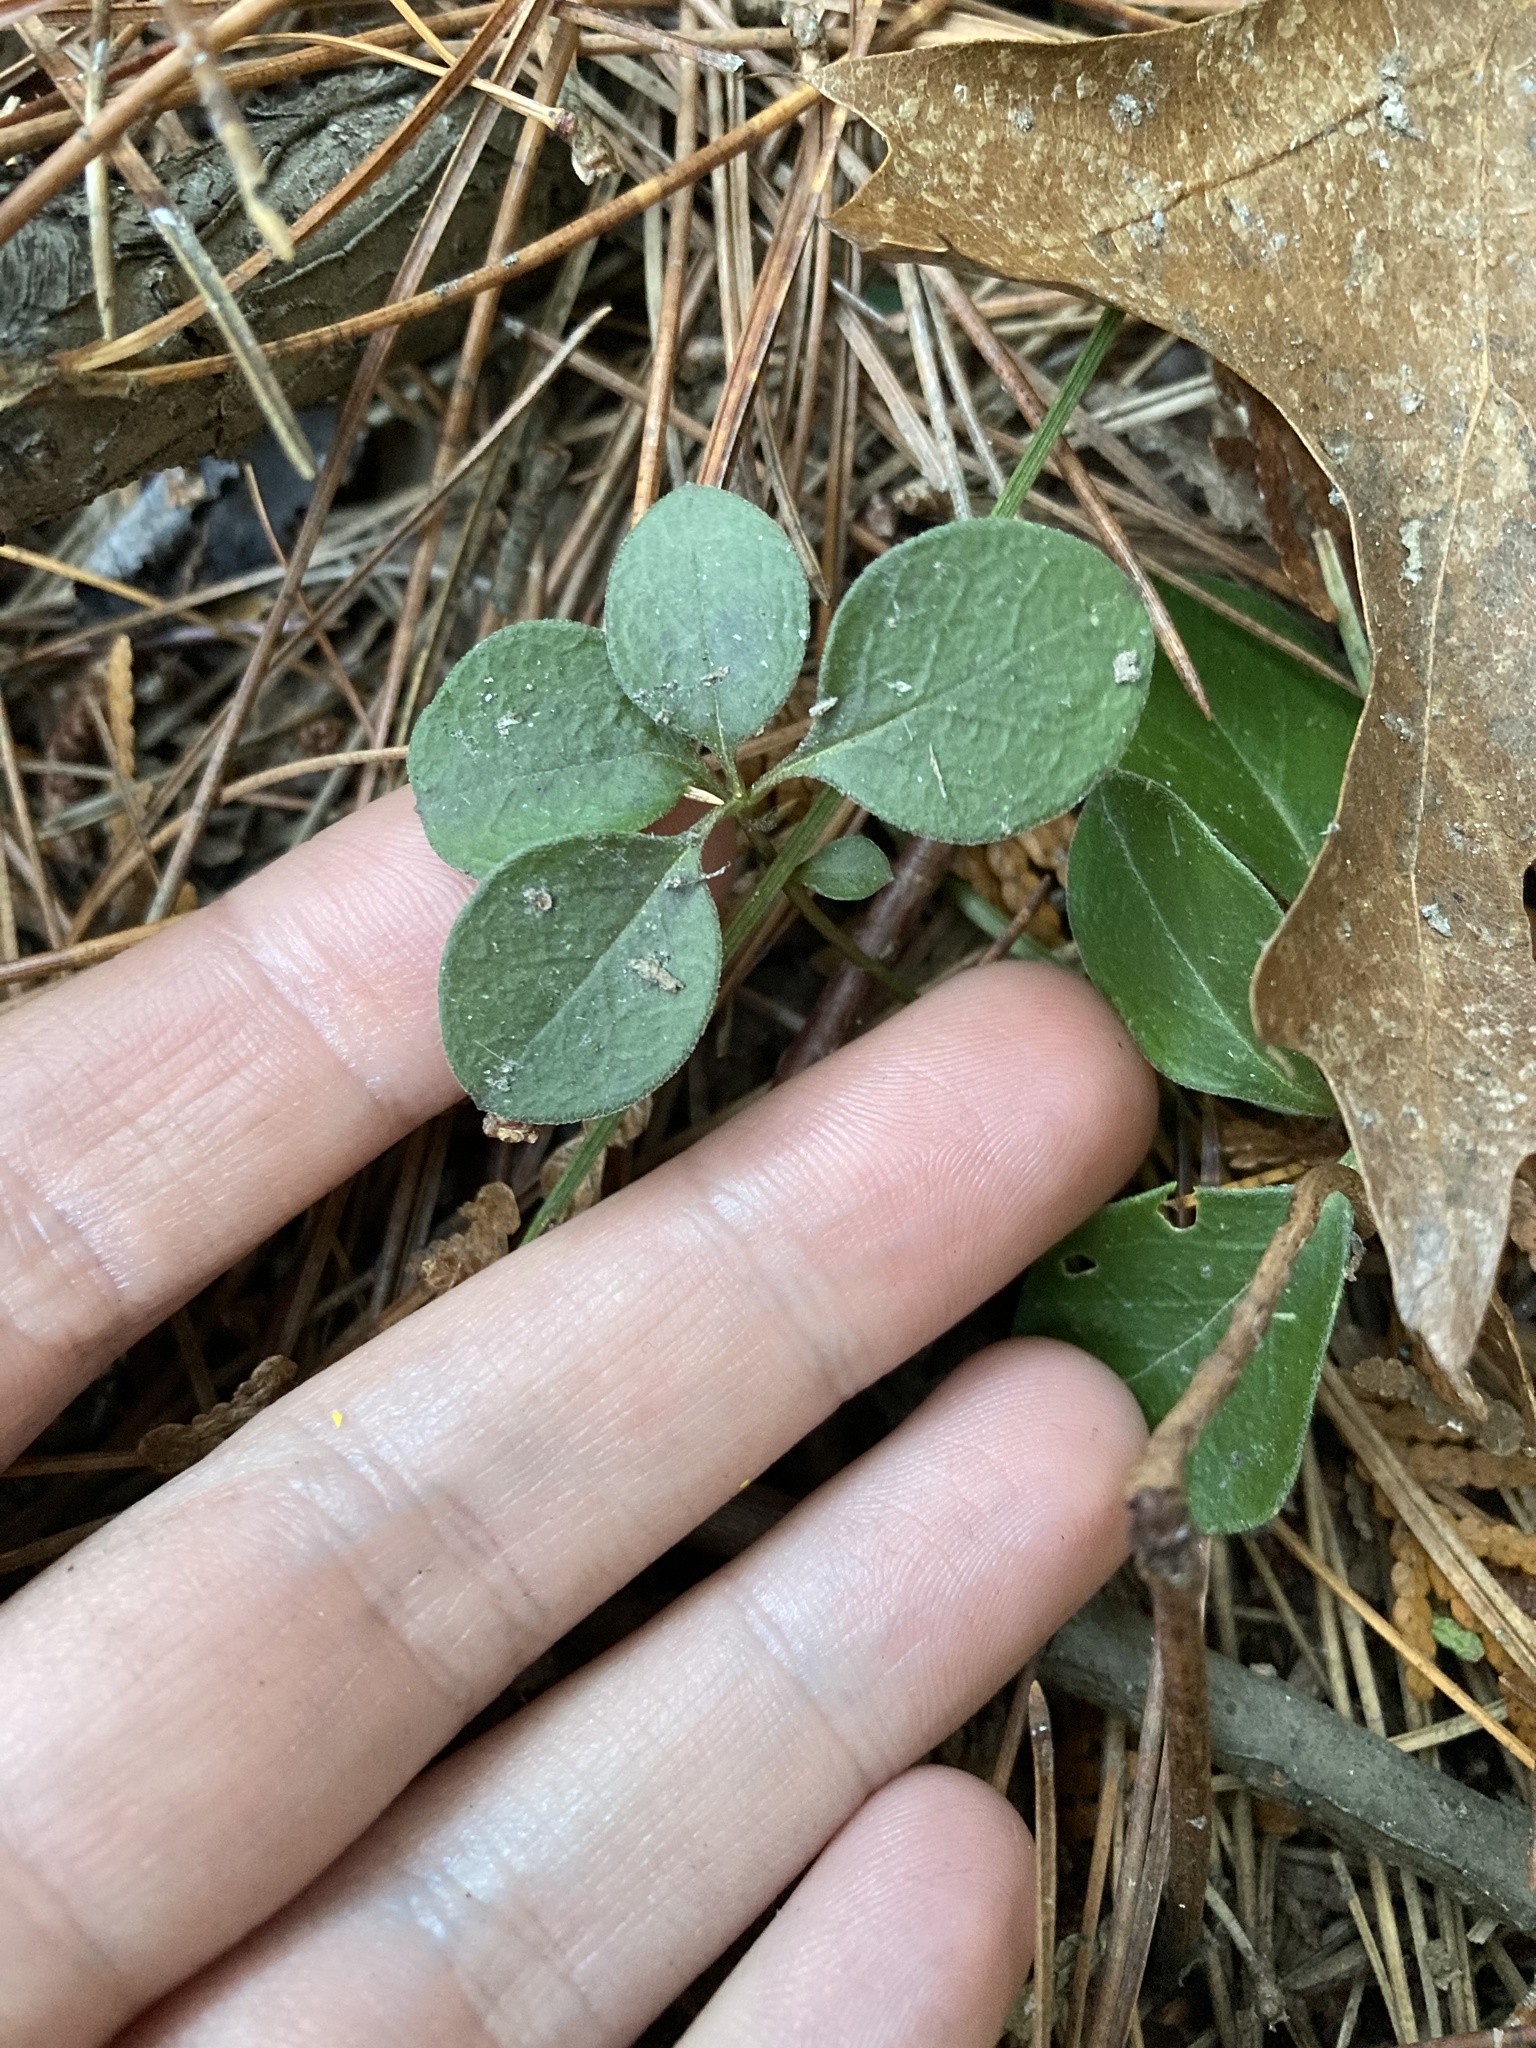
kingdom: Plantae
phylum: Tracheophyta
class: Magnoliopsida
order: Fabales
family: Polygalaceae
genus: Polygaloides
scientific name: Polygaloides paucifolia
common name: Bird-on-the-wing
